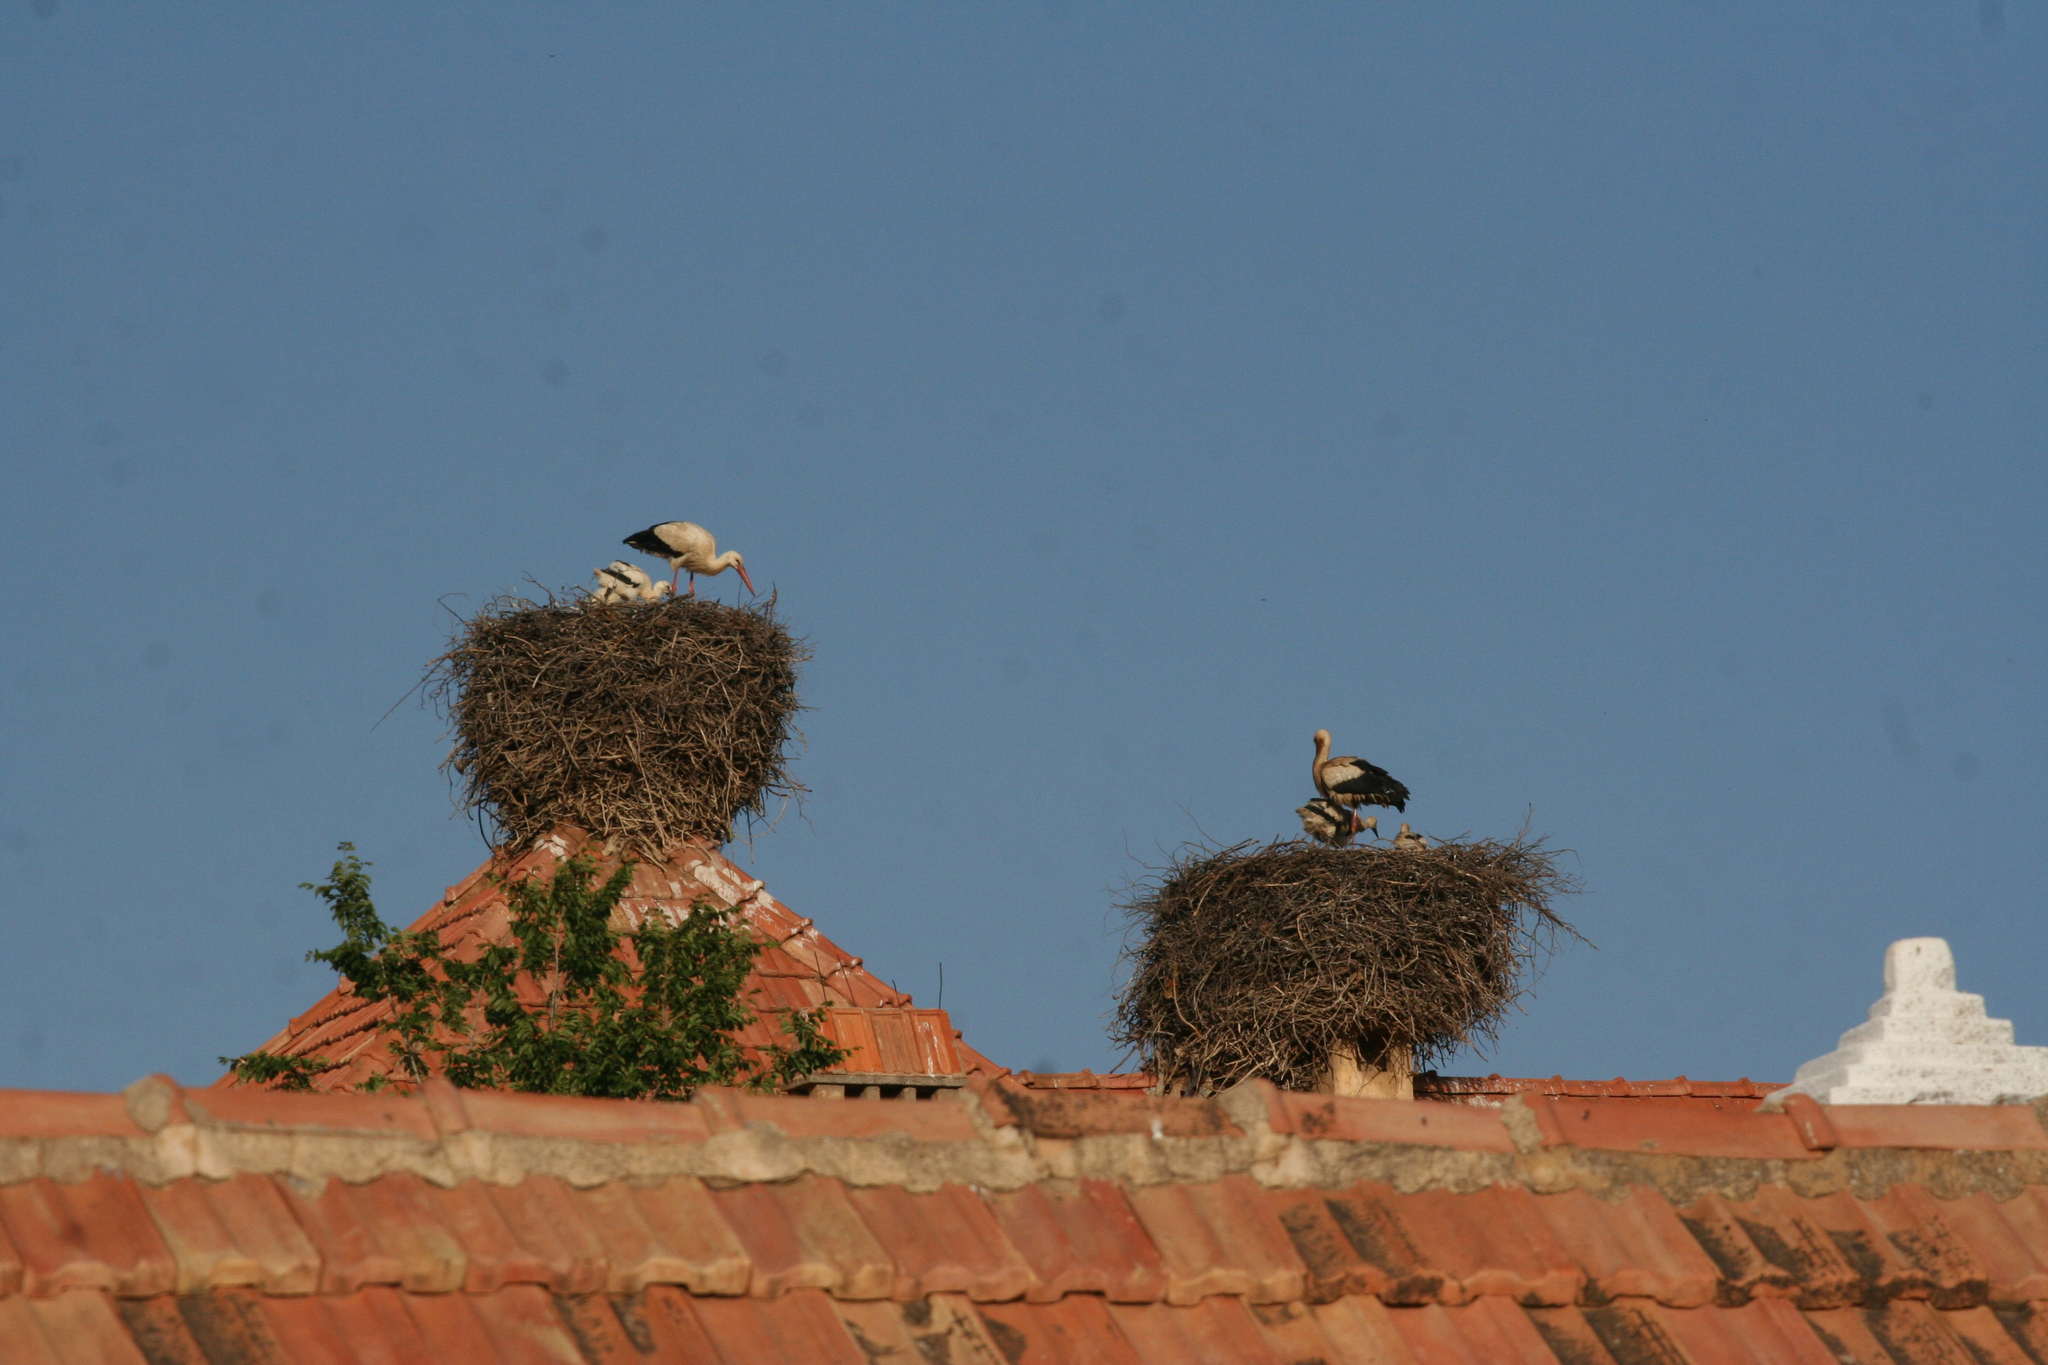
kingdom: Animalia
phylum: Chordata
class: Aves
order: Ciconiiformes
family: Ciconiidae
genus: Ciconia
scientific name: Ciconia ciconia
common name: White stork
